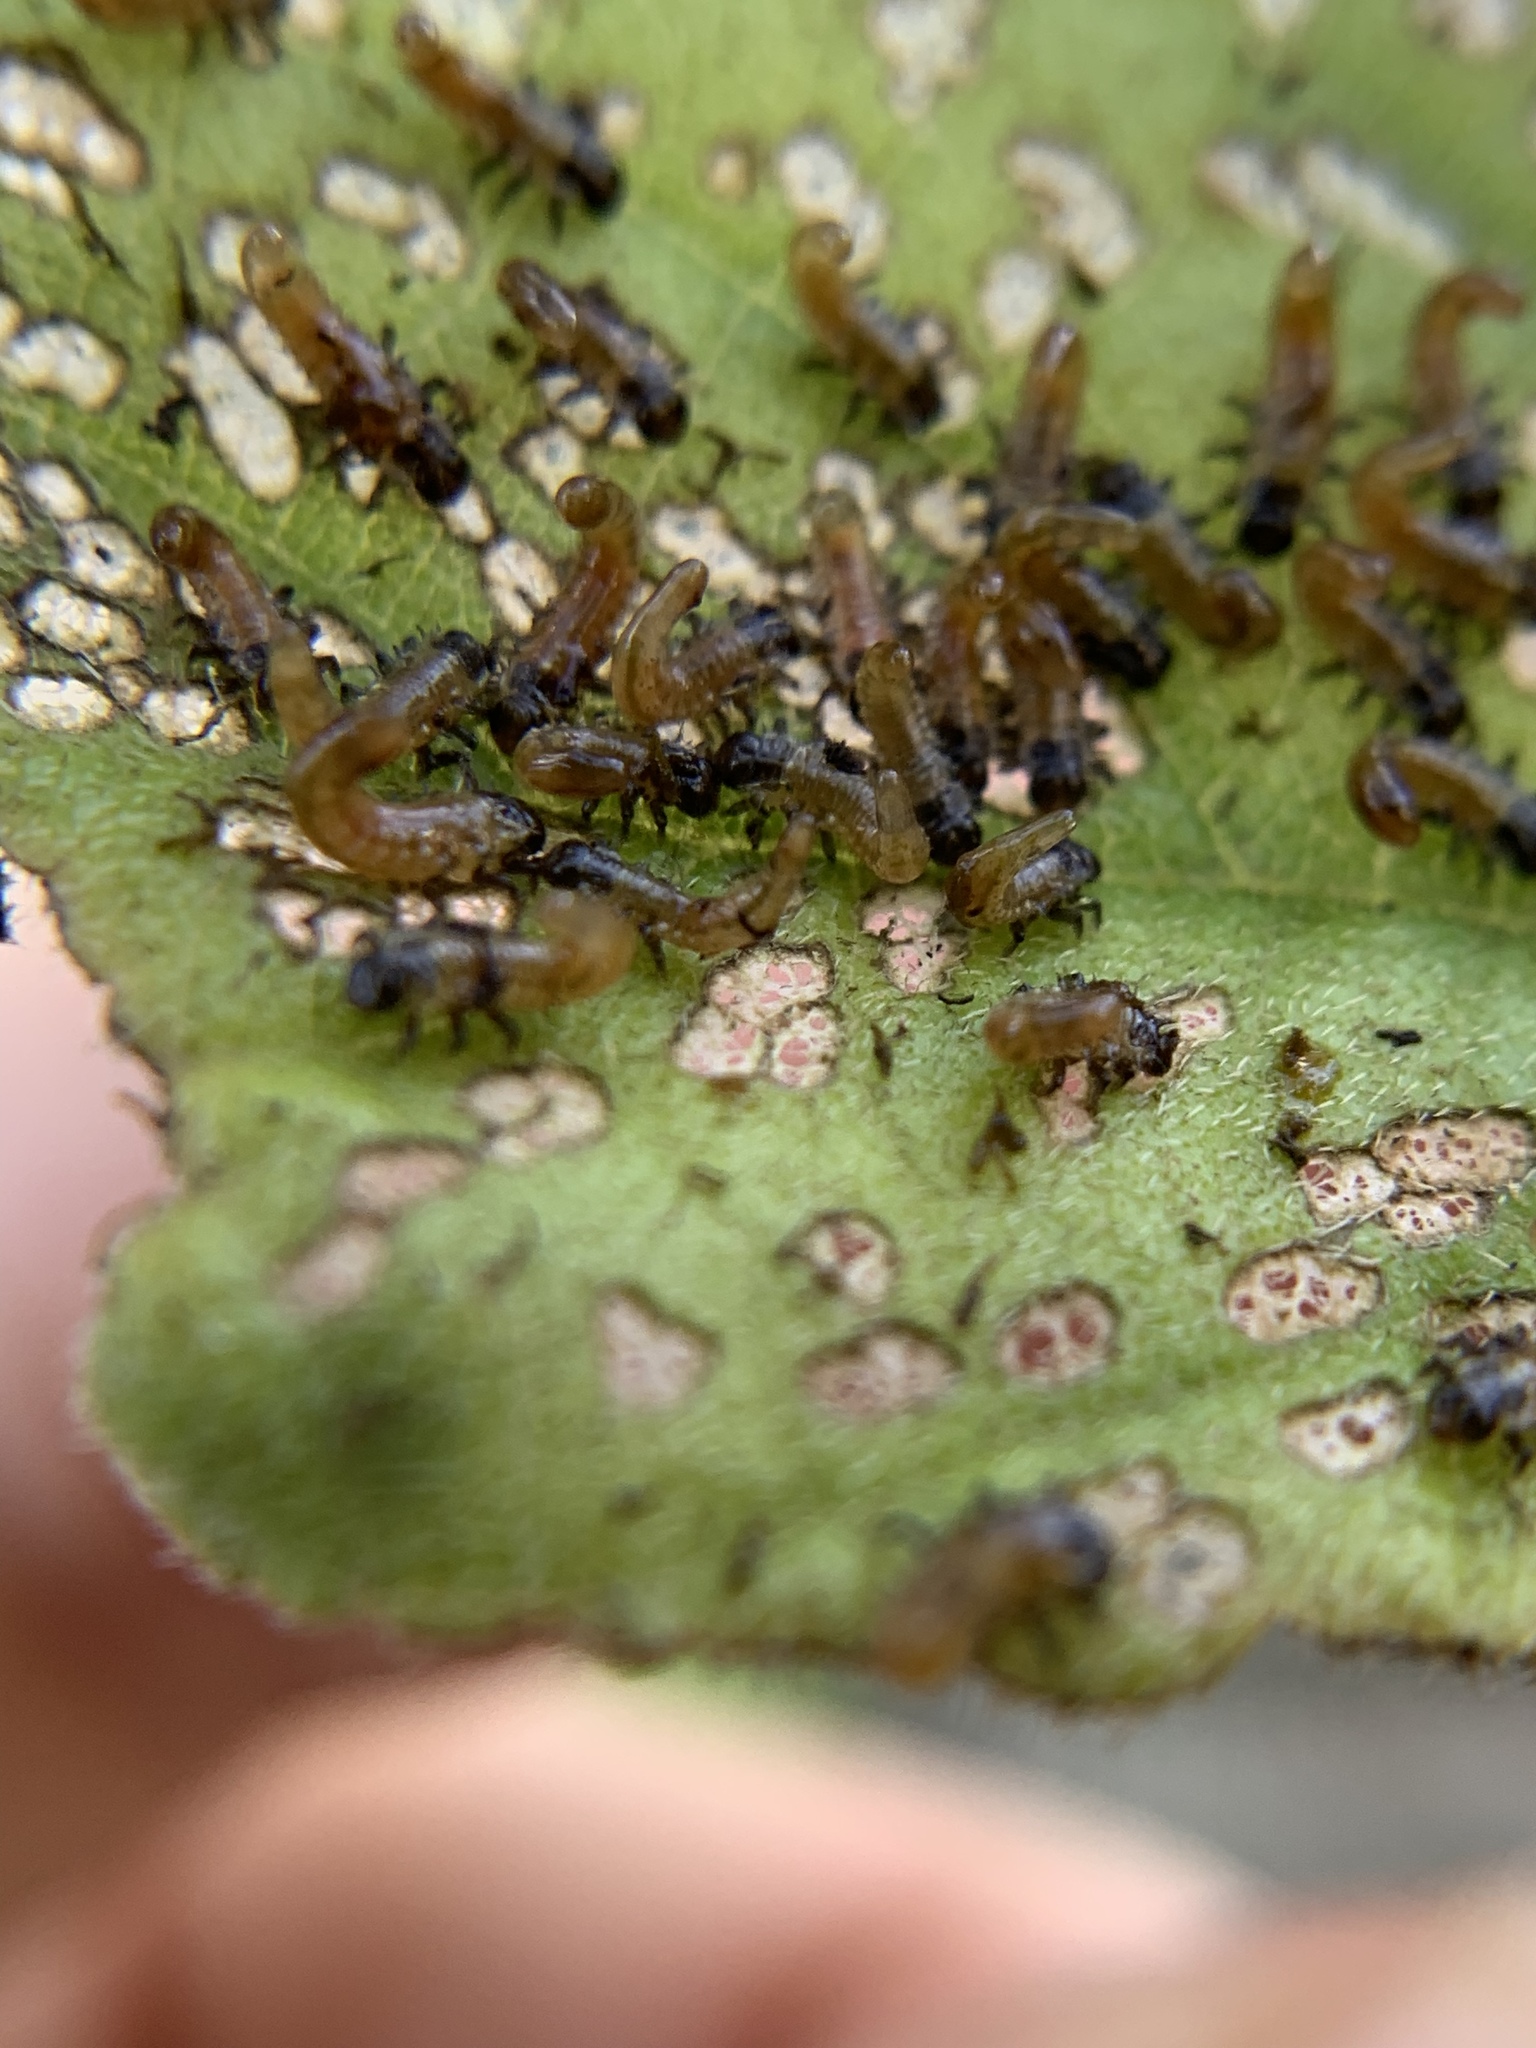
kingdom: Animalia
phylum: Arthropoda
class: Insecta
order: Coleoptera
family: Chrysomelidae
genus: Eurypepla
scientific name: Eurypepla calochroma
